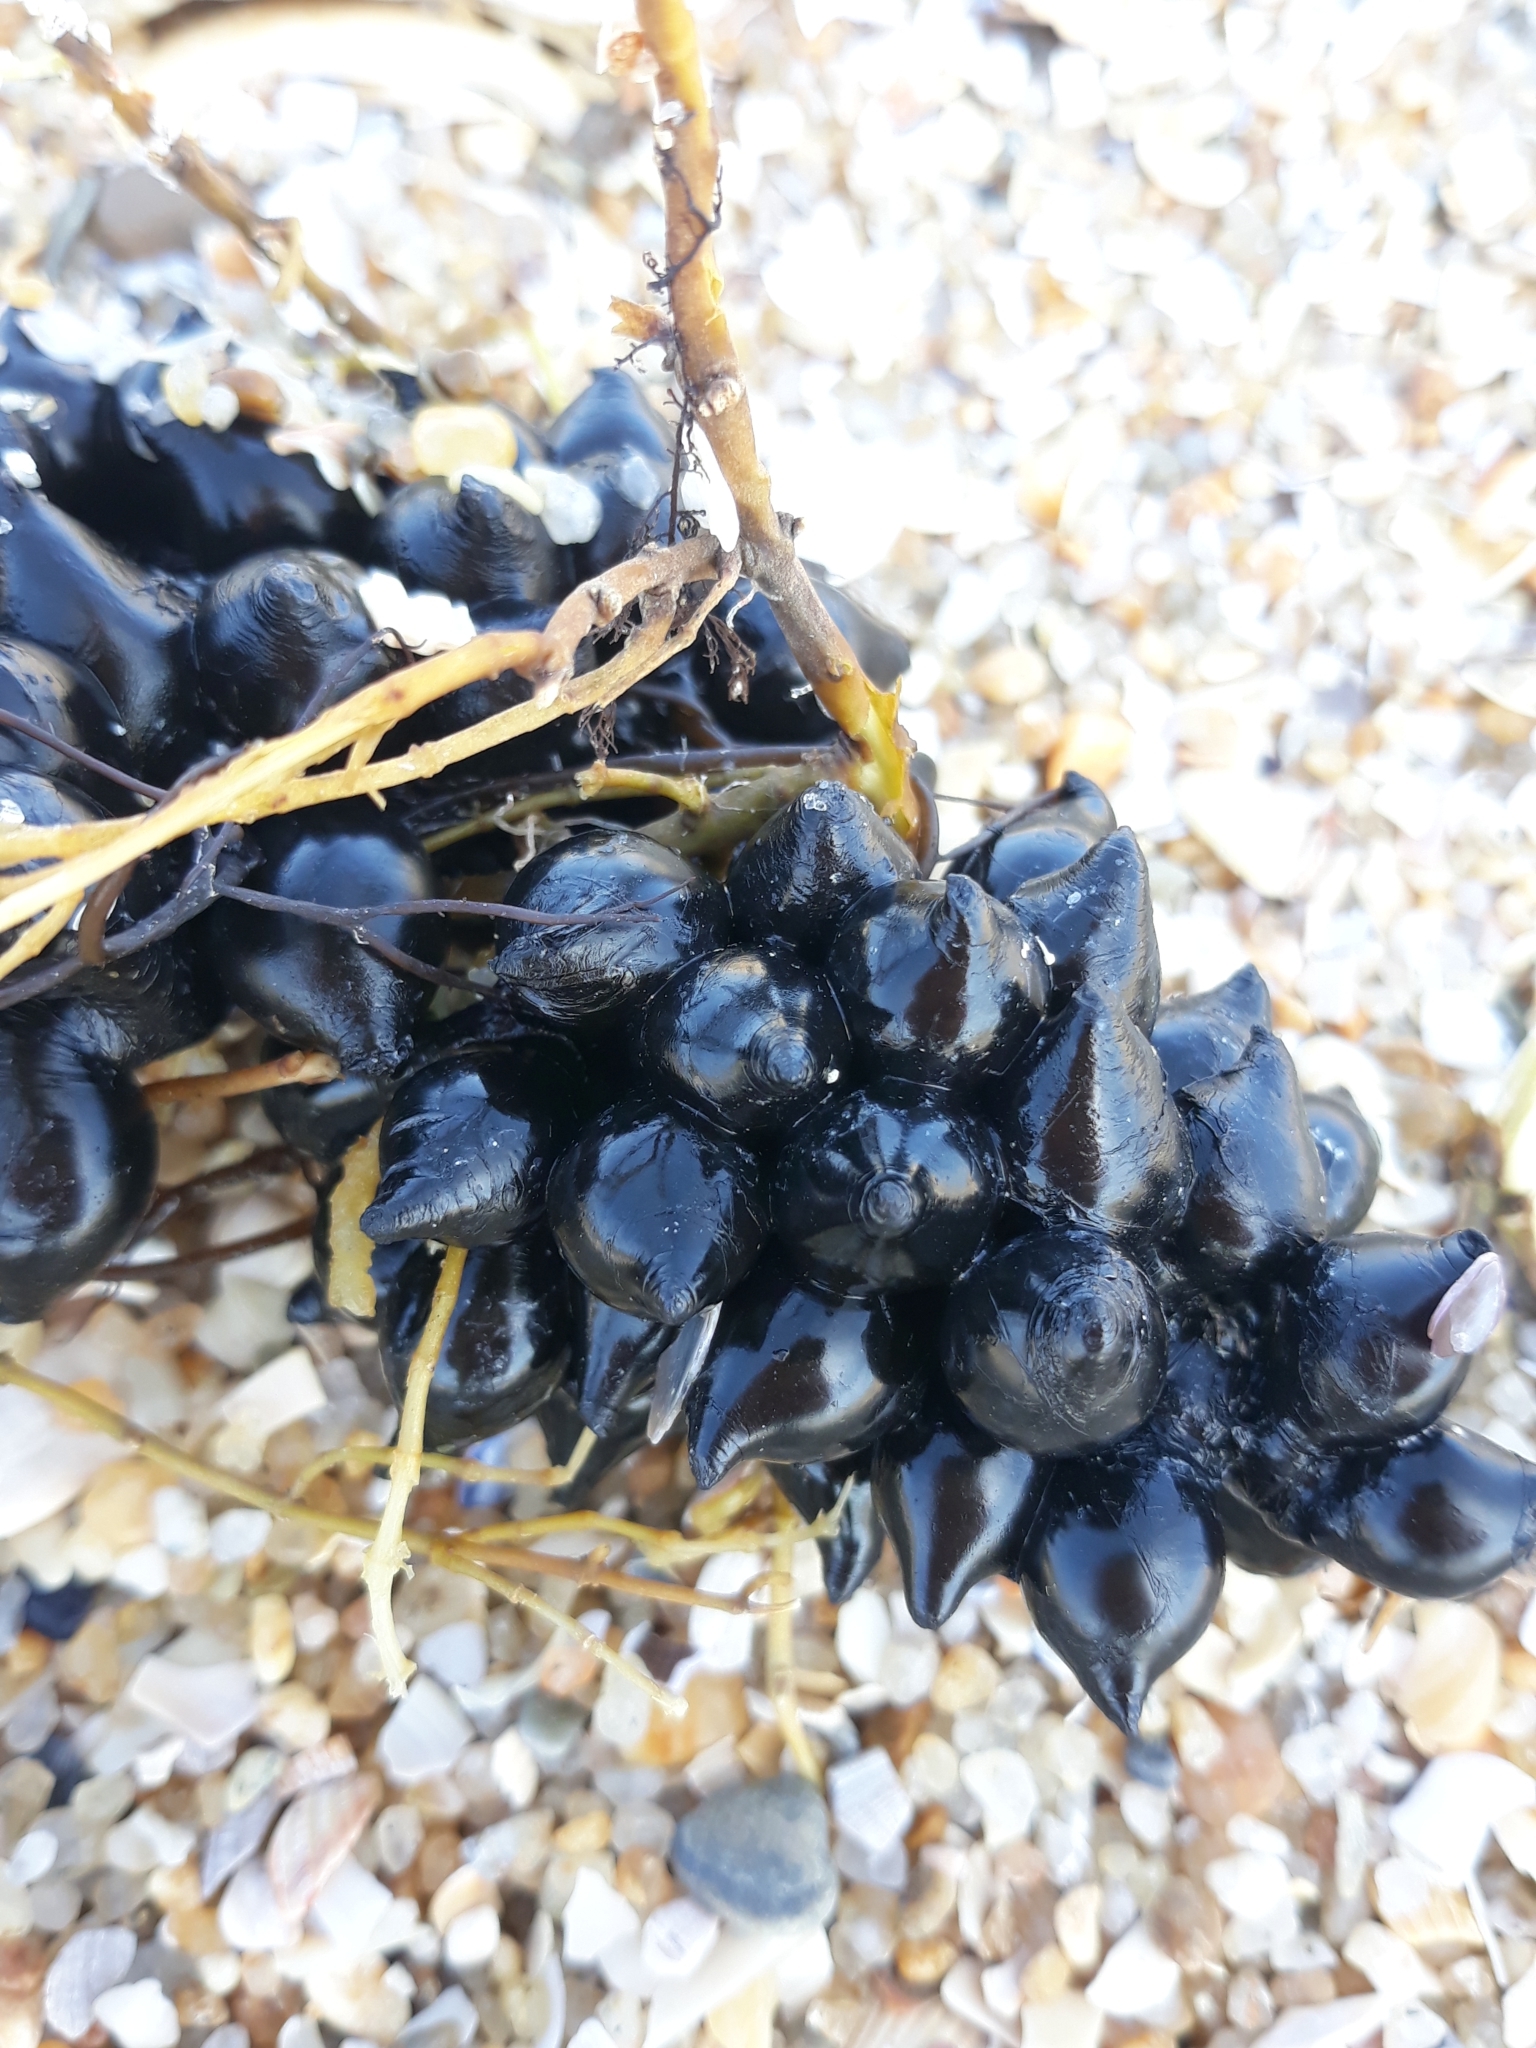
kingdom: Animalia
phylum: Mollusca
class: Cephalopoda
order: Sepiida
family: Sepiidae
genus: Sepia
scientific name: Sepia officinalis
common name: Common cuttlefish
